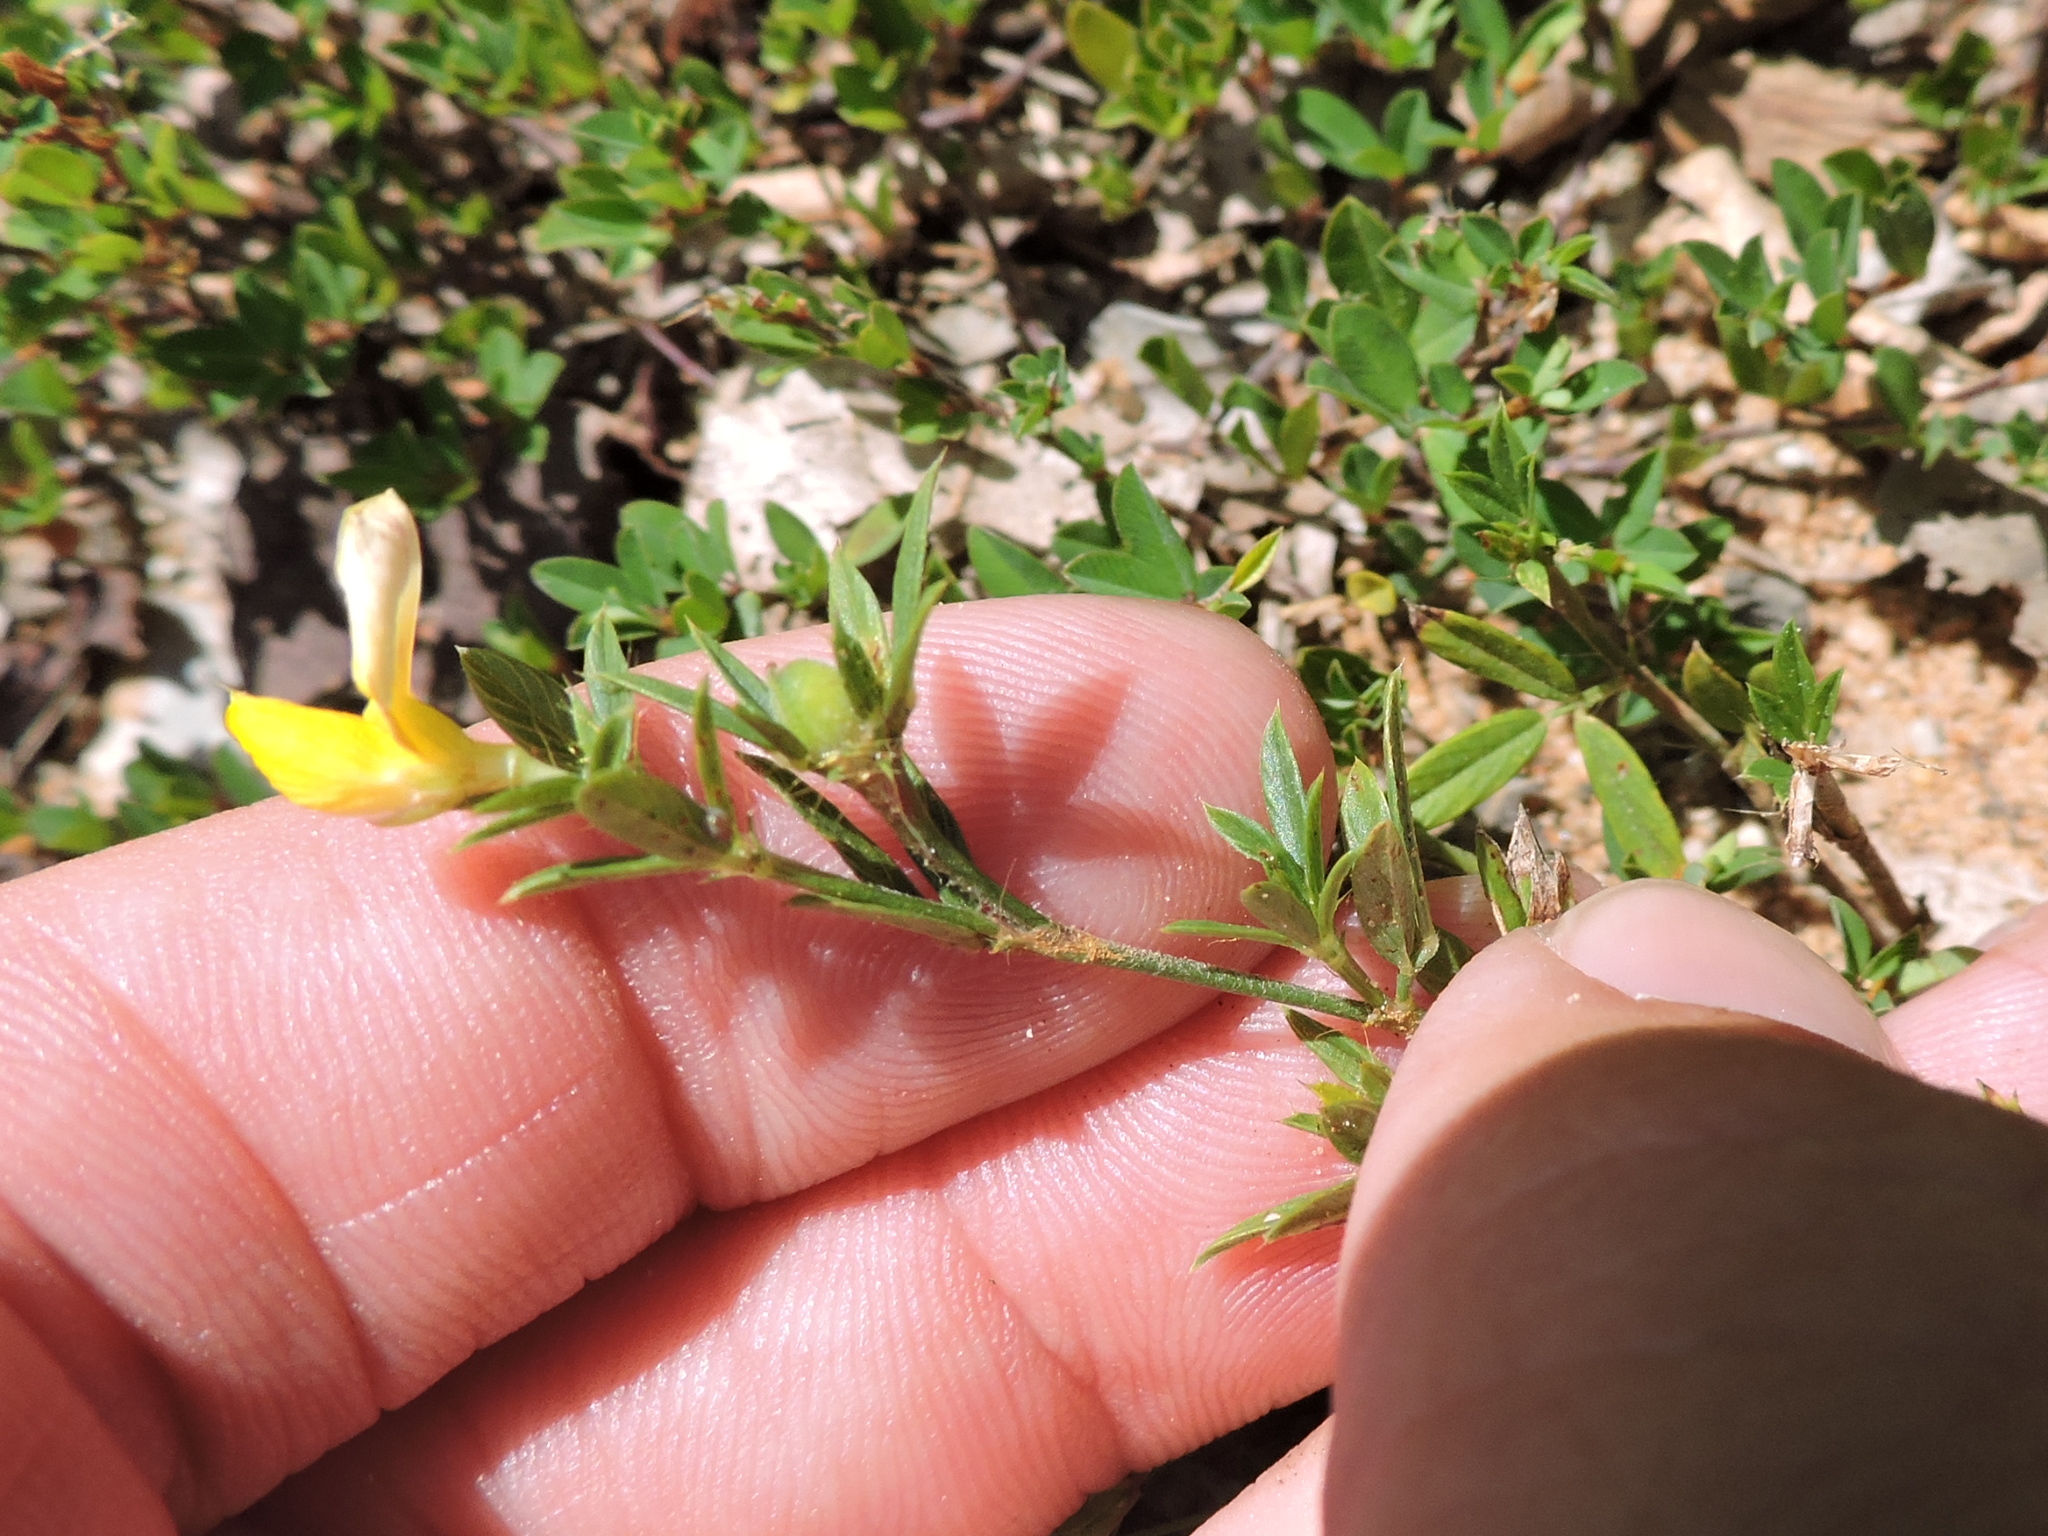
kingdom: Plantae
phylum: Tracheophyta
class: Magnoliopsida
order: Fabales
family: Fabaceae
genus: Stylosanthes
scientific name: Stylosanthes biflora
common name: Two-flower pencil-flower
